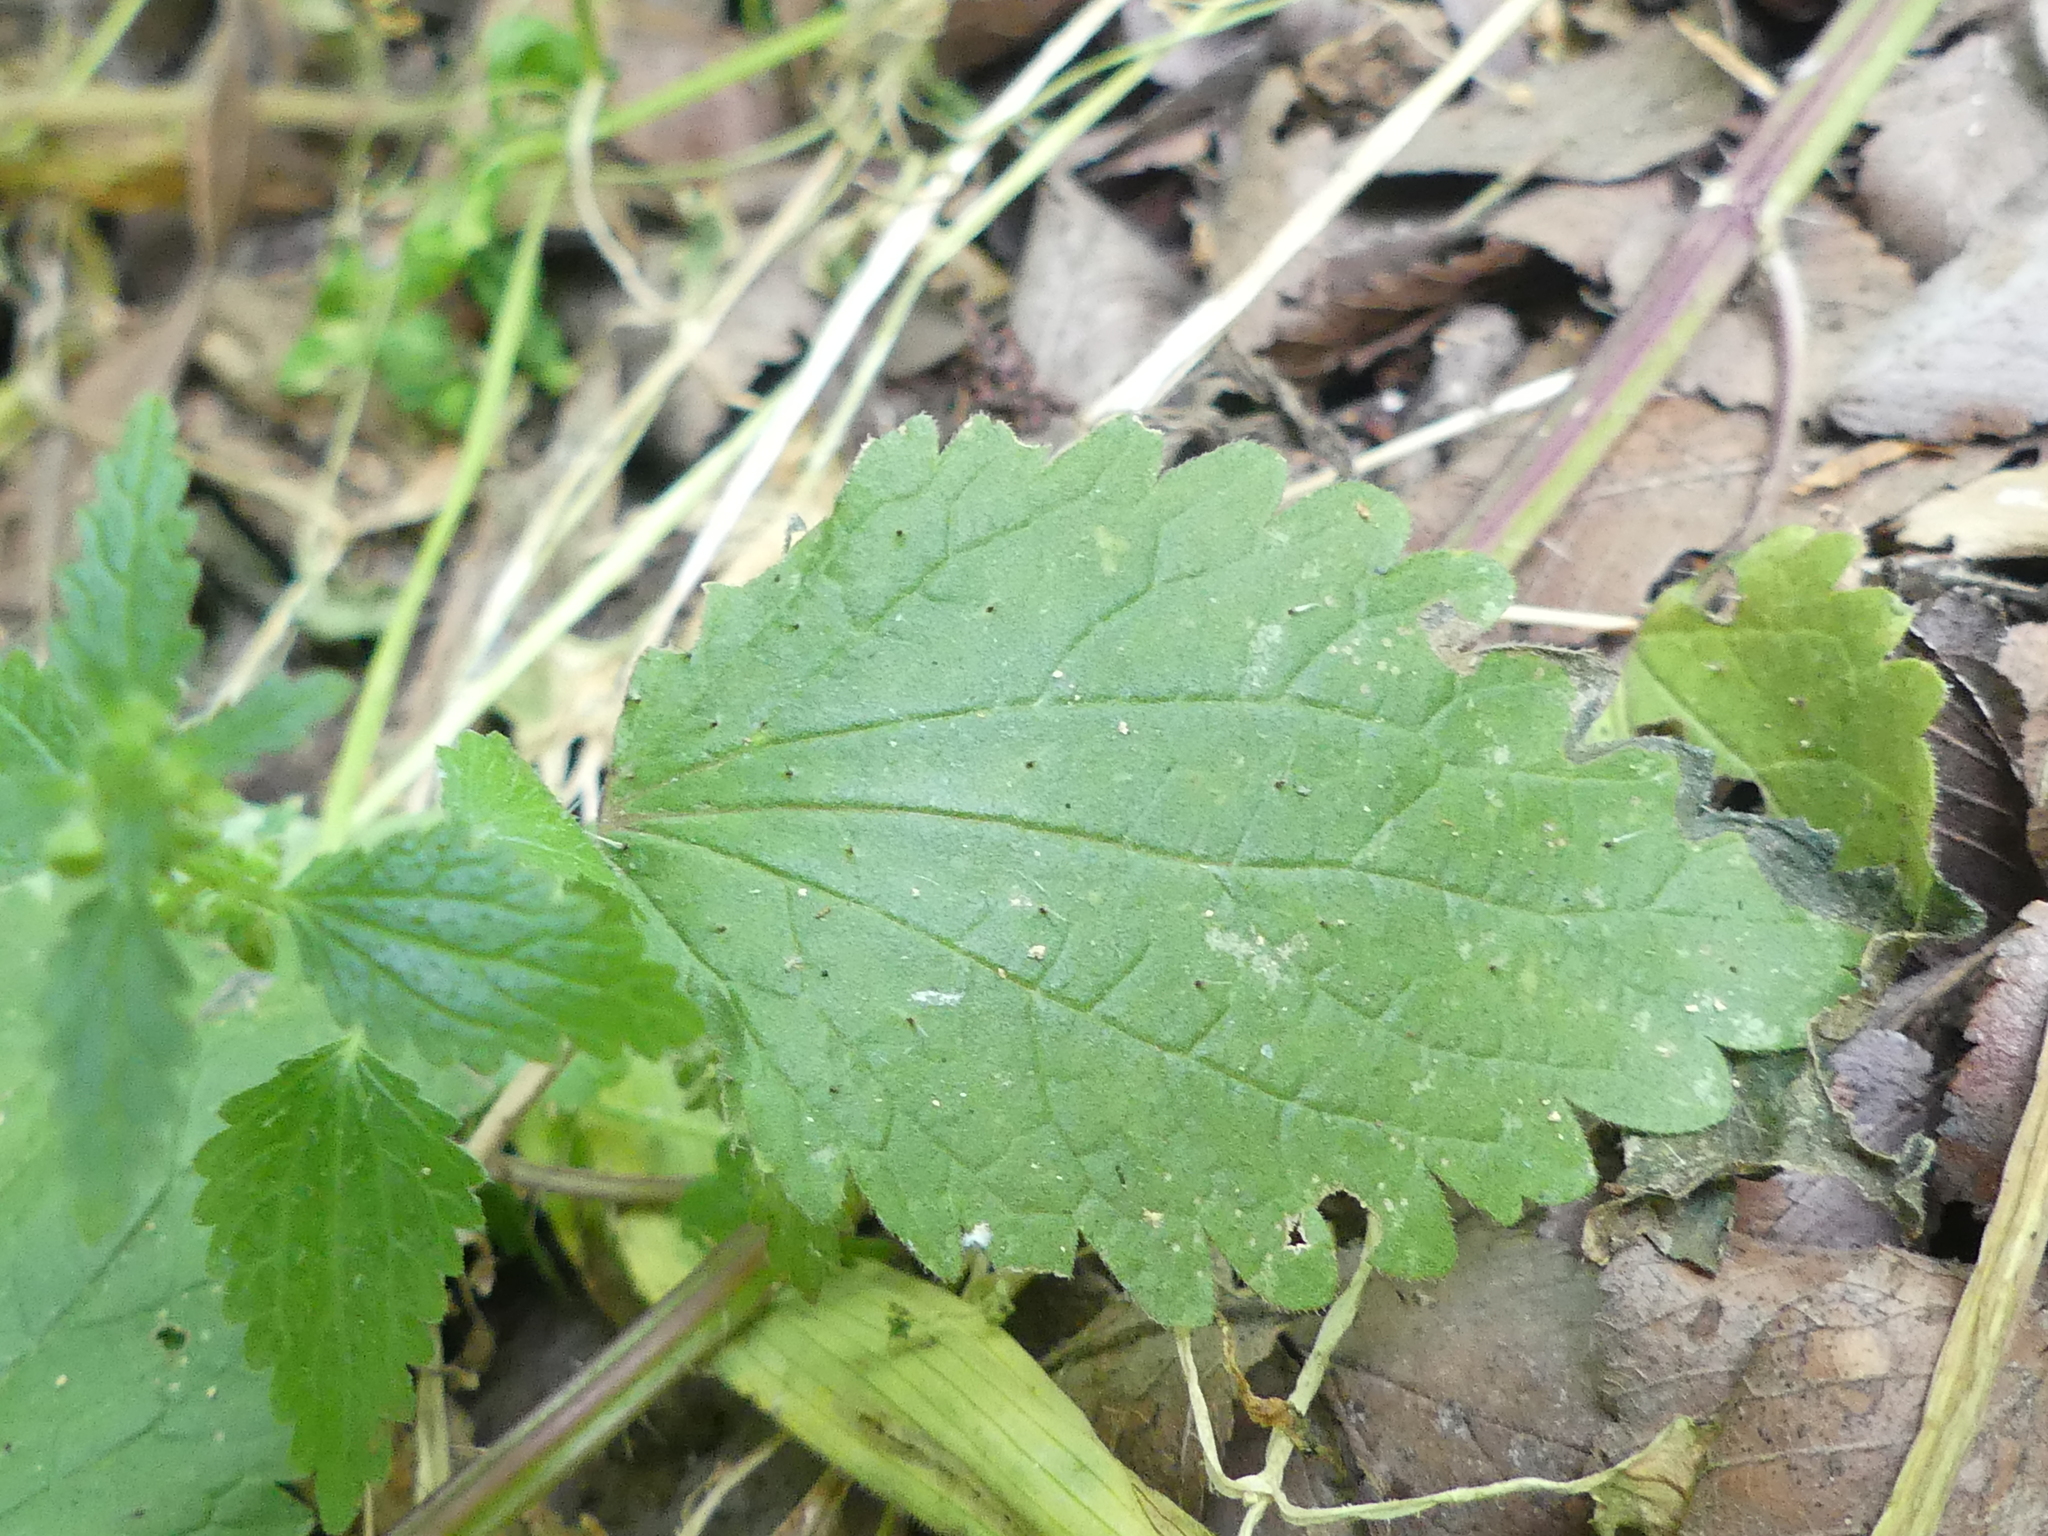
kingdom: Plantae
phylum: Tracheophyta
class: Magnoliopsida
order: Rosales
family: Urticaceae
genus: Urtica
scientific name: Urtica chamaedryoides
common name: Heart-leaf nettle
